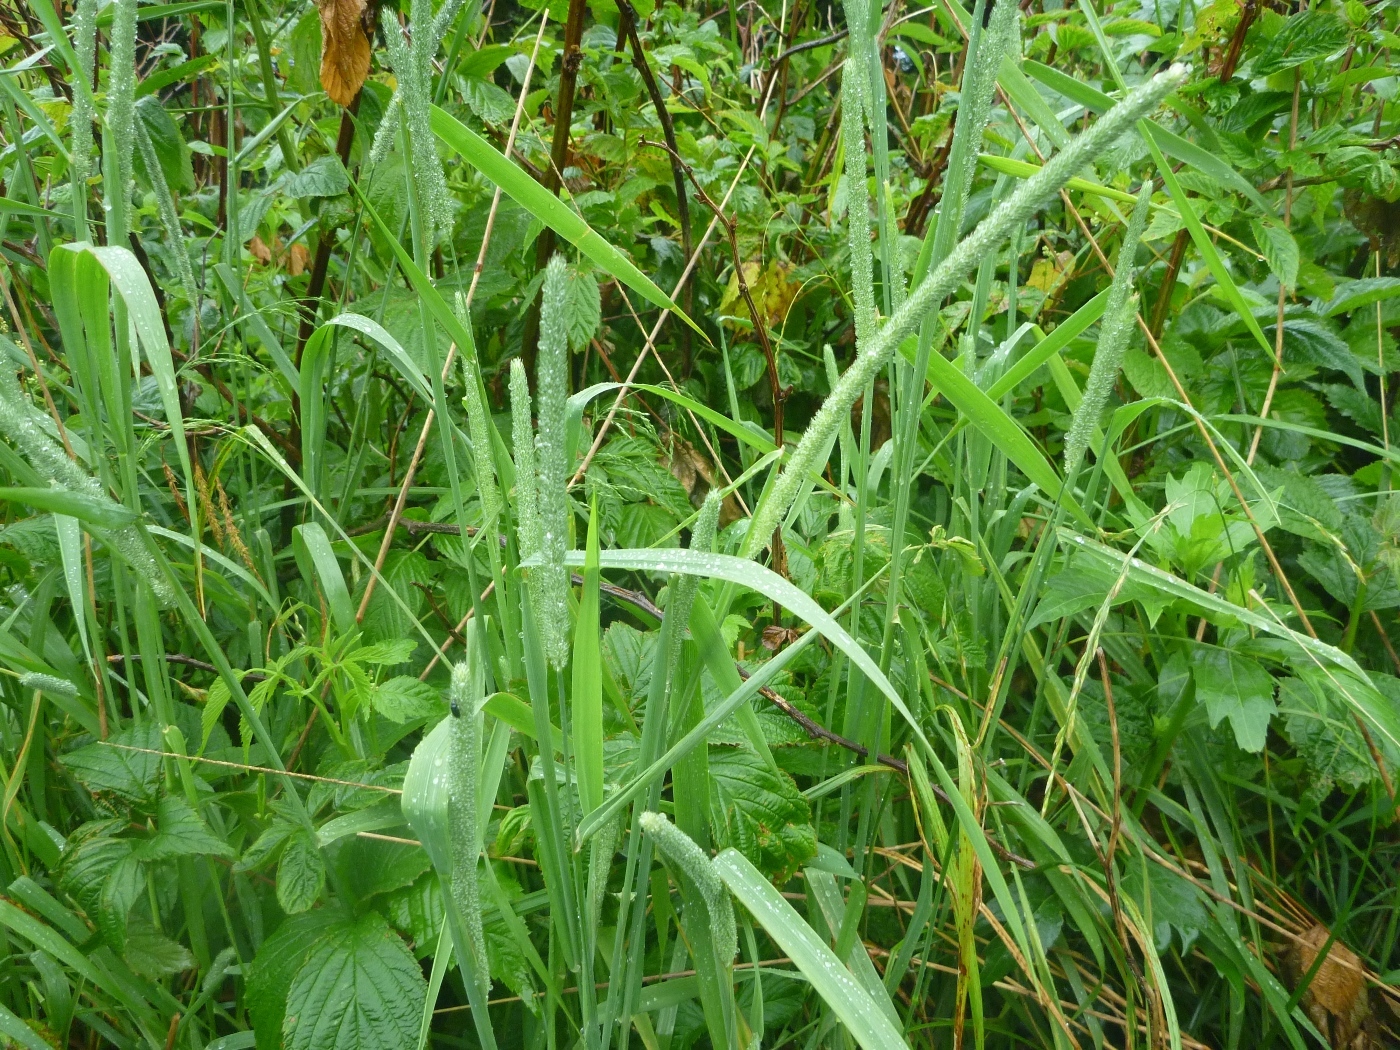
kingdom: Plantae
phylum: Tracheophyta
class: Liliopsida
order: Poales
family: Poaceae
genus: Phleum
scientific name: Phleum pratense
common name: Timothy grass
